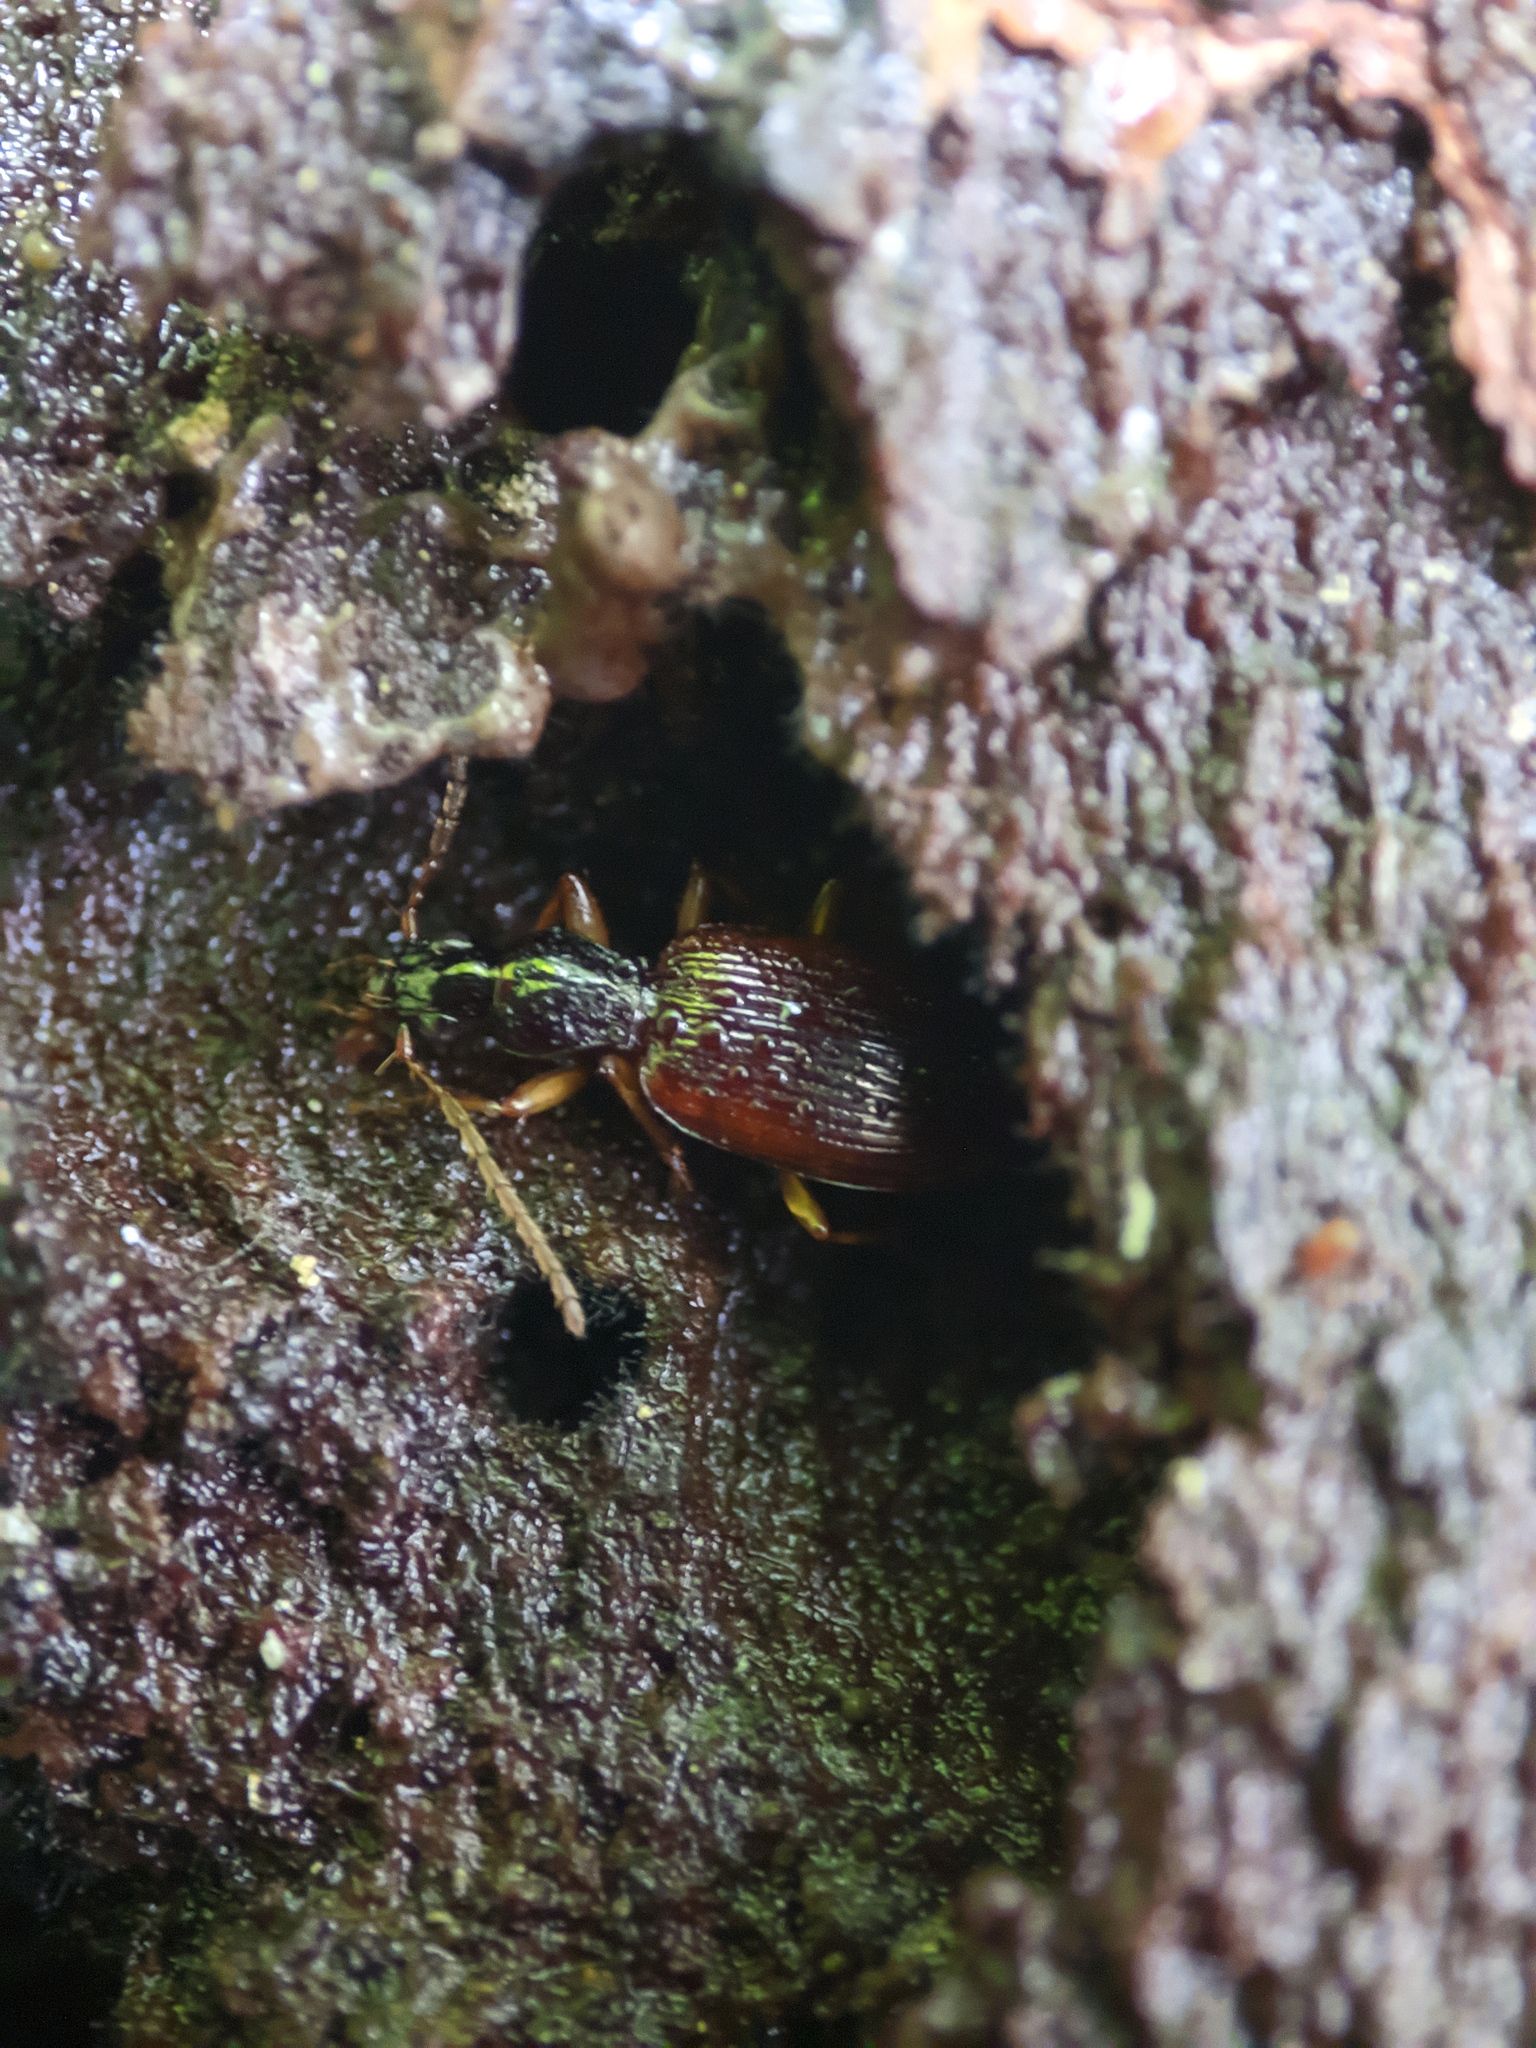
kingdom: Animalia
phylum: Arthropoda
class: Insecta
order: Coleoptera
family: Carabidae
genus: Oxypselaphus
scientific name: Oxypselaphus obscurus
